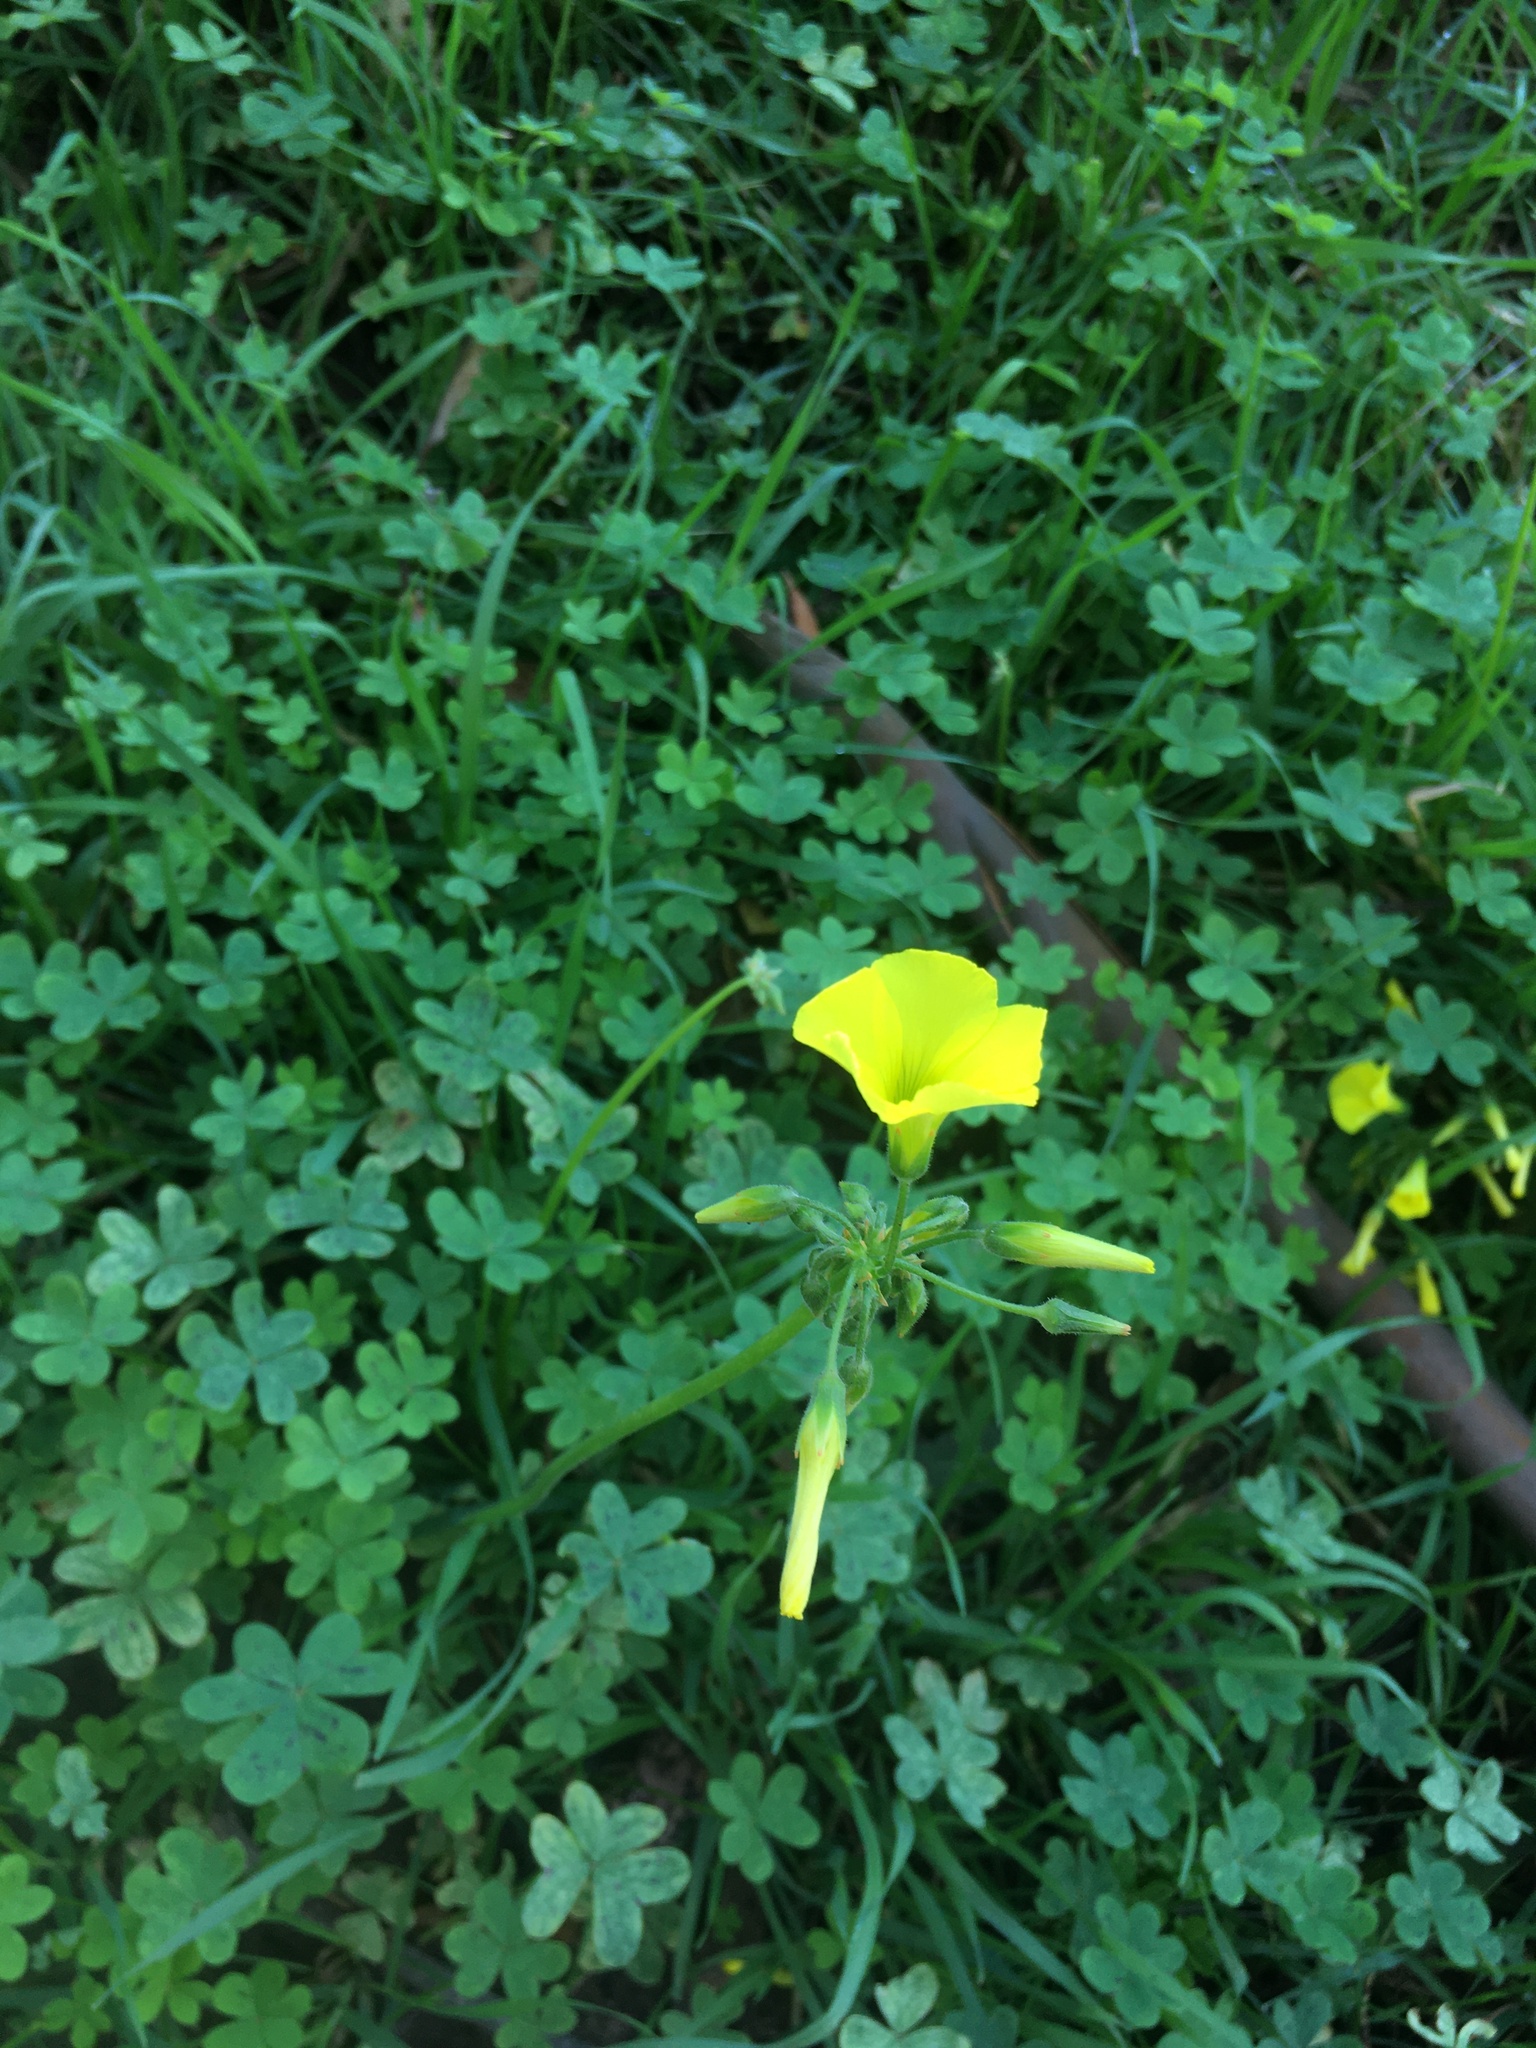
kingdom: Plantae
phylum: Tracheophyta
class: Magnoliopsida
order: Oxalidales
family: Oxalidaceae
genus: Oxalis
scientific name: Oxalis pes-caprae
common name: Bermuda-buttercup
